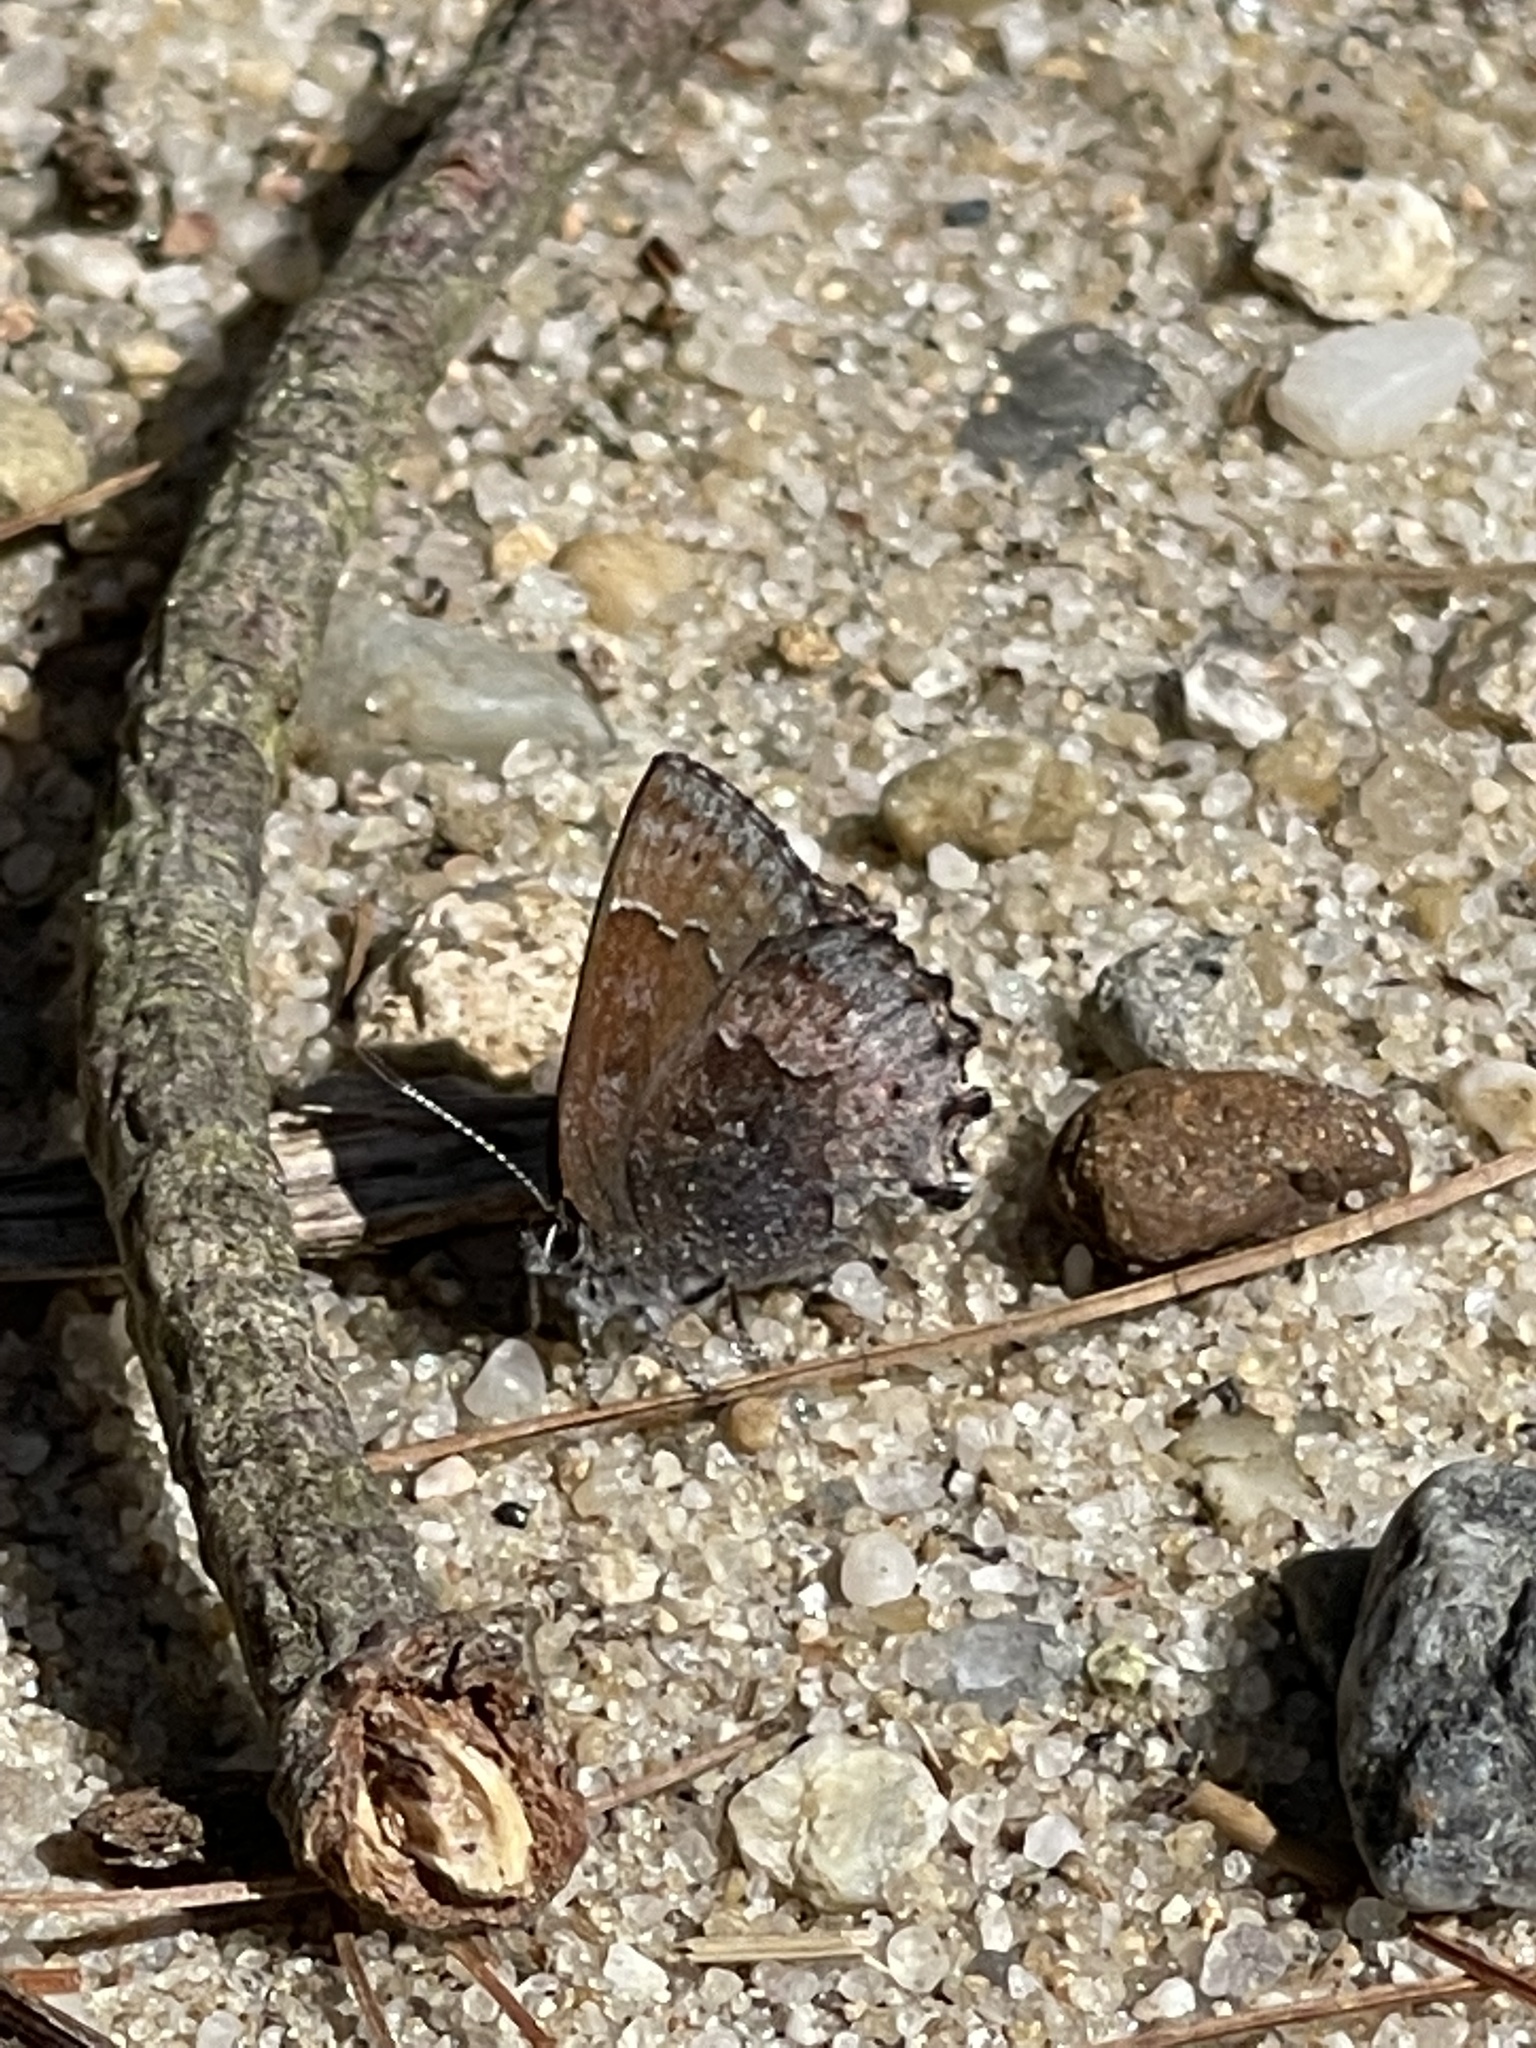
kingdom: Animalia
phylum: Arthropoda
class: Insecta
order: Lepidoptera
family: Lycaenidae
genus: Callophrys
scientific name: Callophrys polios
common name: Hoary elfin
